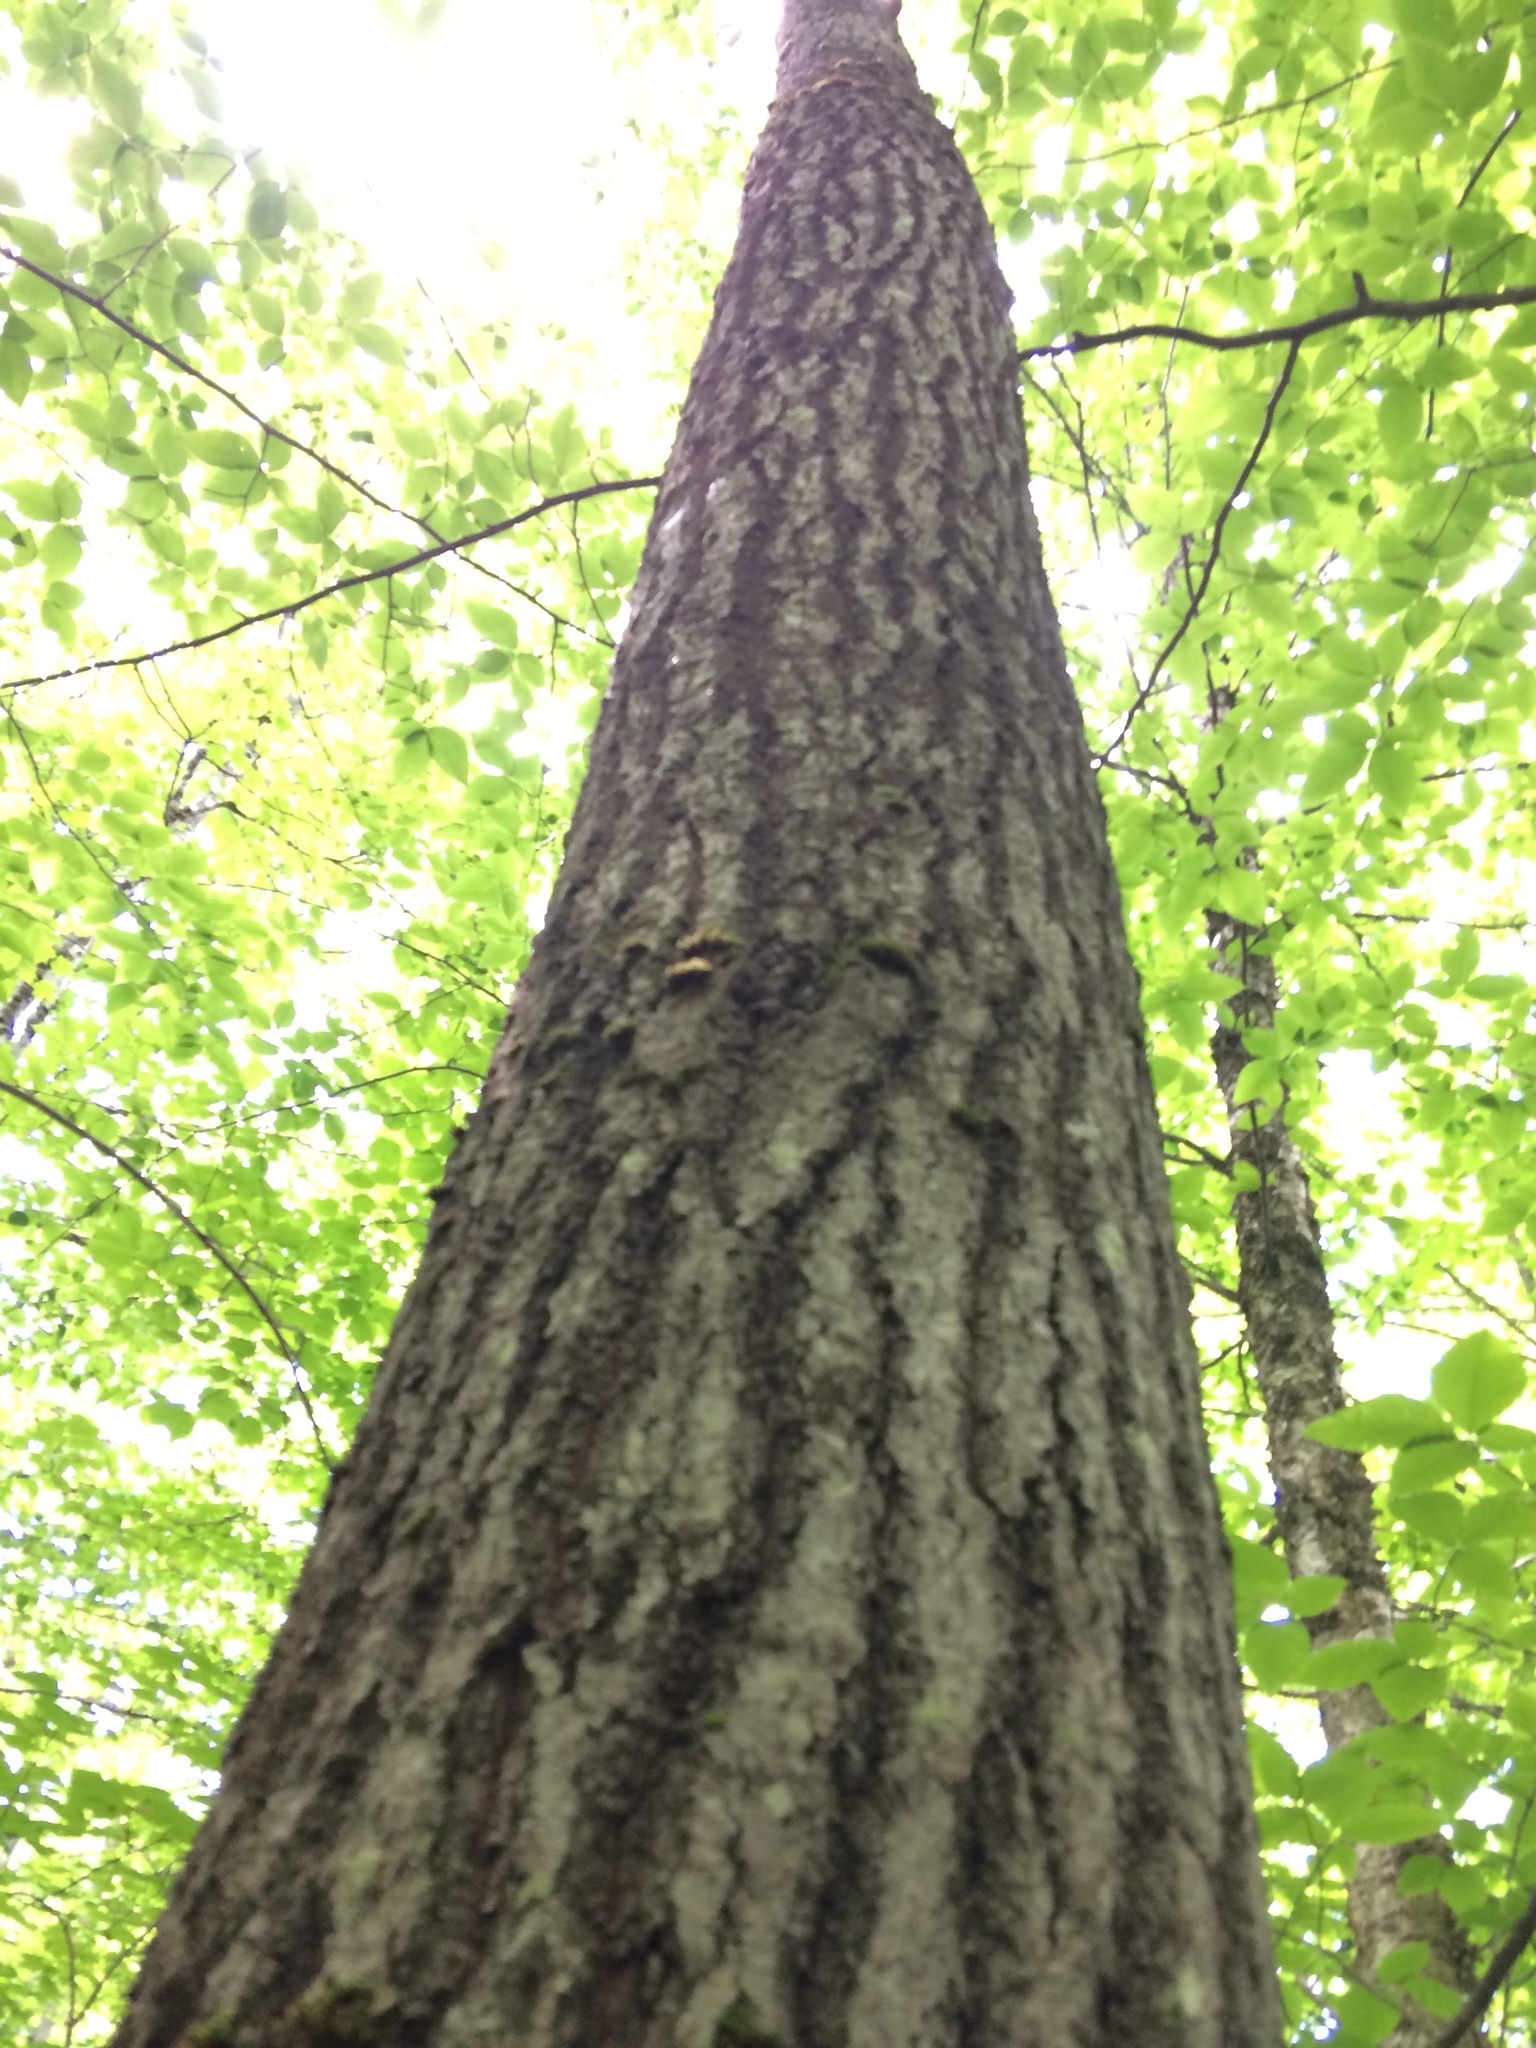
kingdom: Plantae
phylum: Tracheophyta
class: Magnoliopsida
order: Malpighiales
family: Salicaceae
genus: Populus
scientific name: Populus grandidentata
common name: Bigtooth aspen
